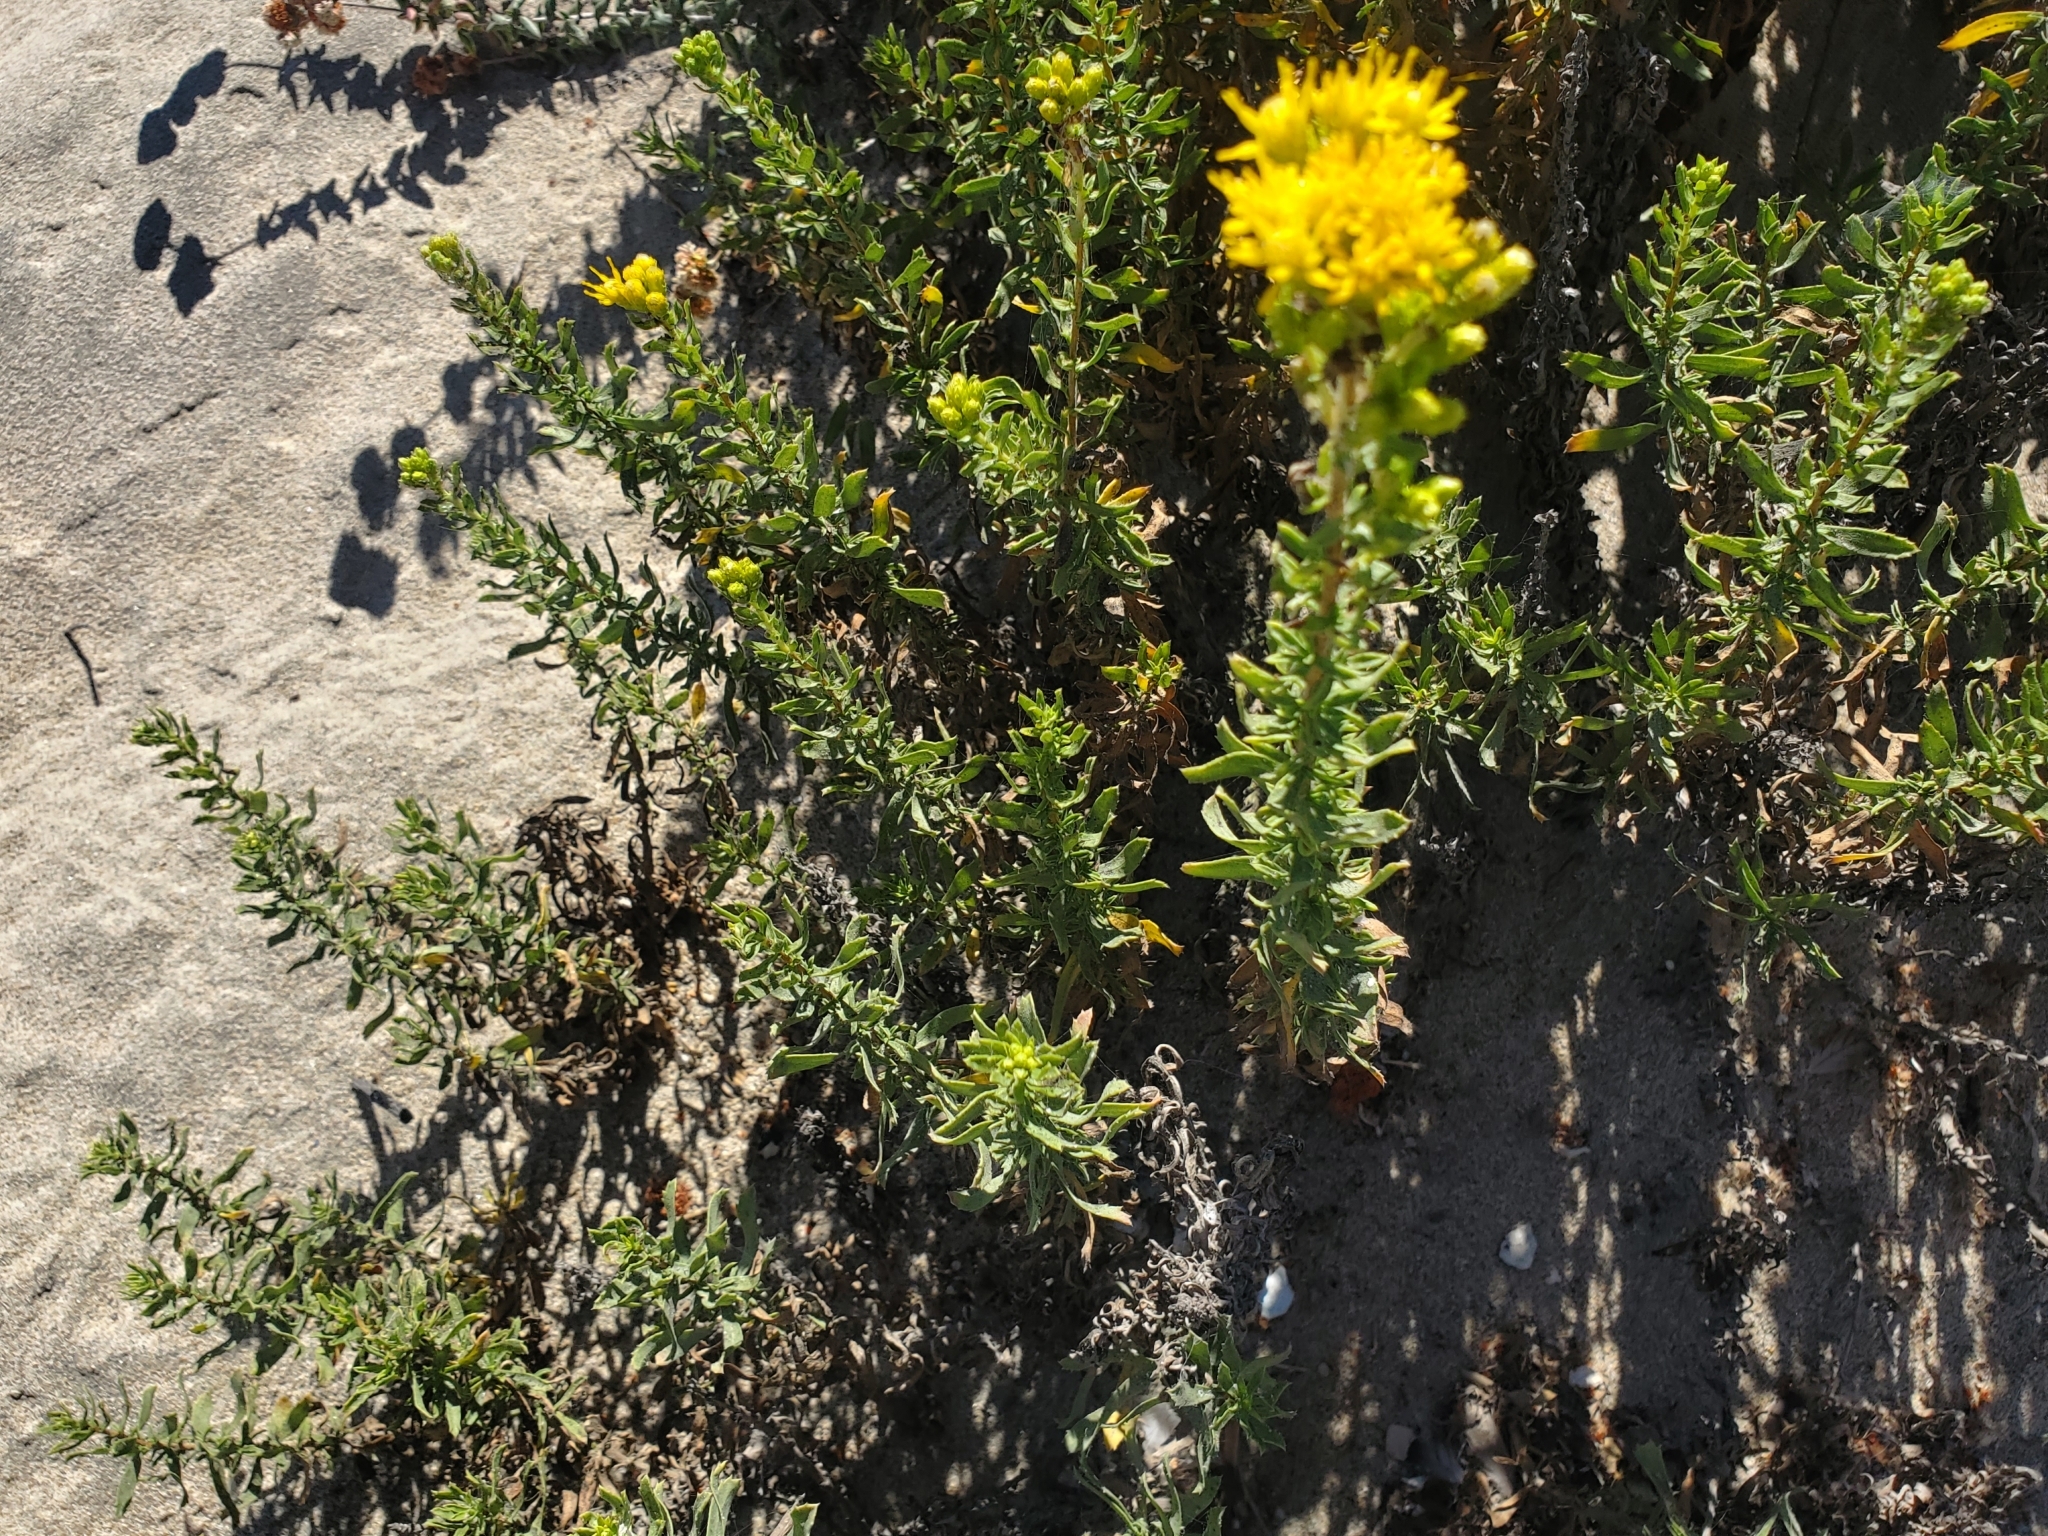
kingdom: Plantae
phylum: Tracheophyta
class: Magnoliopsida
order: Asterales
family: Asteraceae
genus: Isocoma
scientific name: Isocoma menziesii
